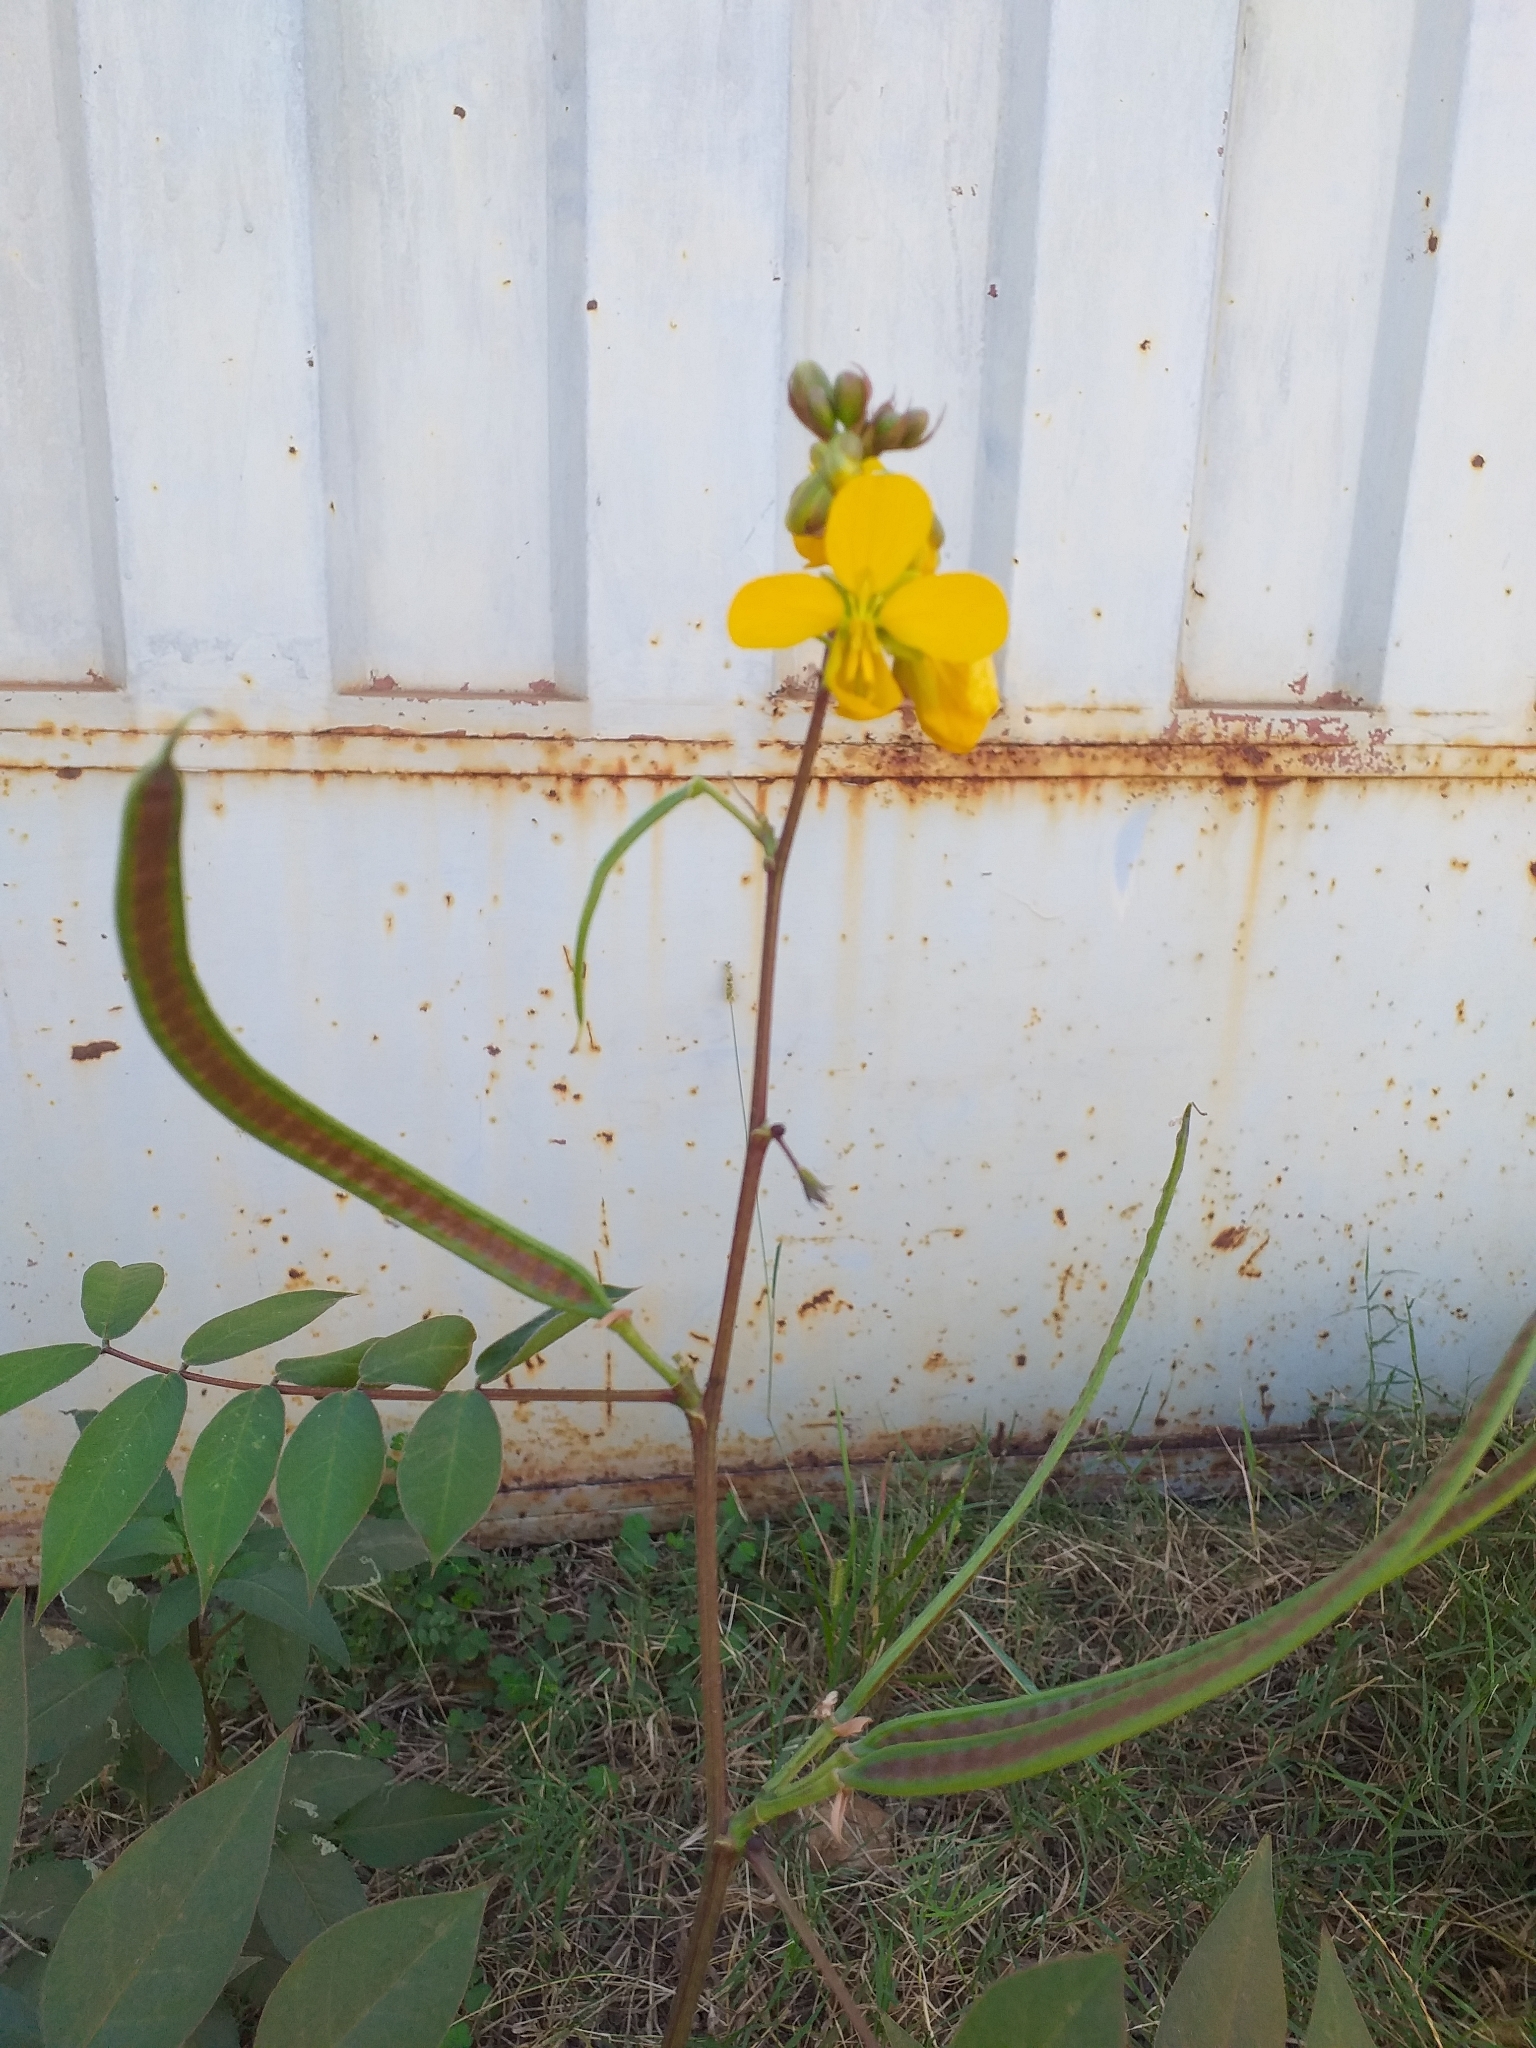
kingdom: Plantae
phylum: Tracheophyta
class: Magnoliopsida
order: Fabales
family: Fabaceae
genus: Senna
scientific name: Senna occidentalis
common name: Septicweed
